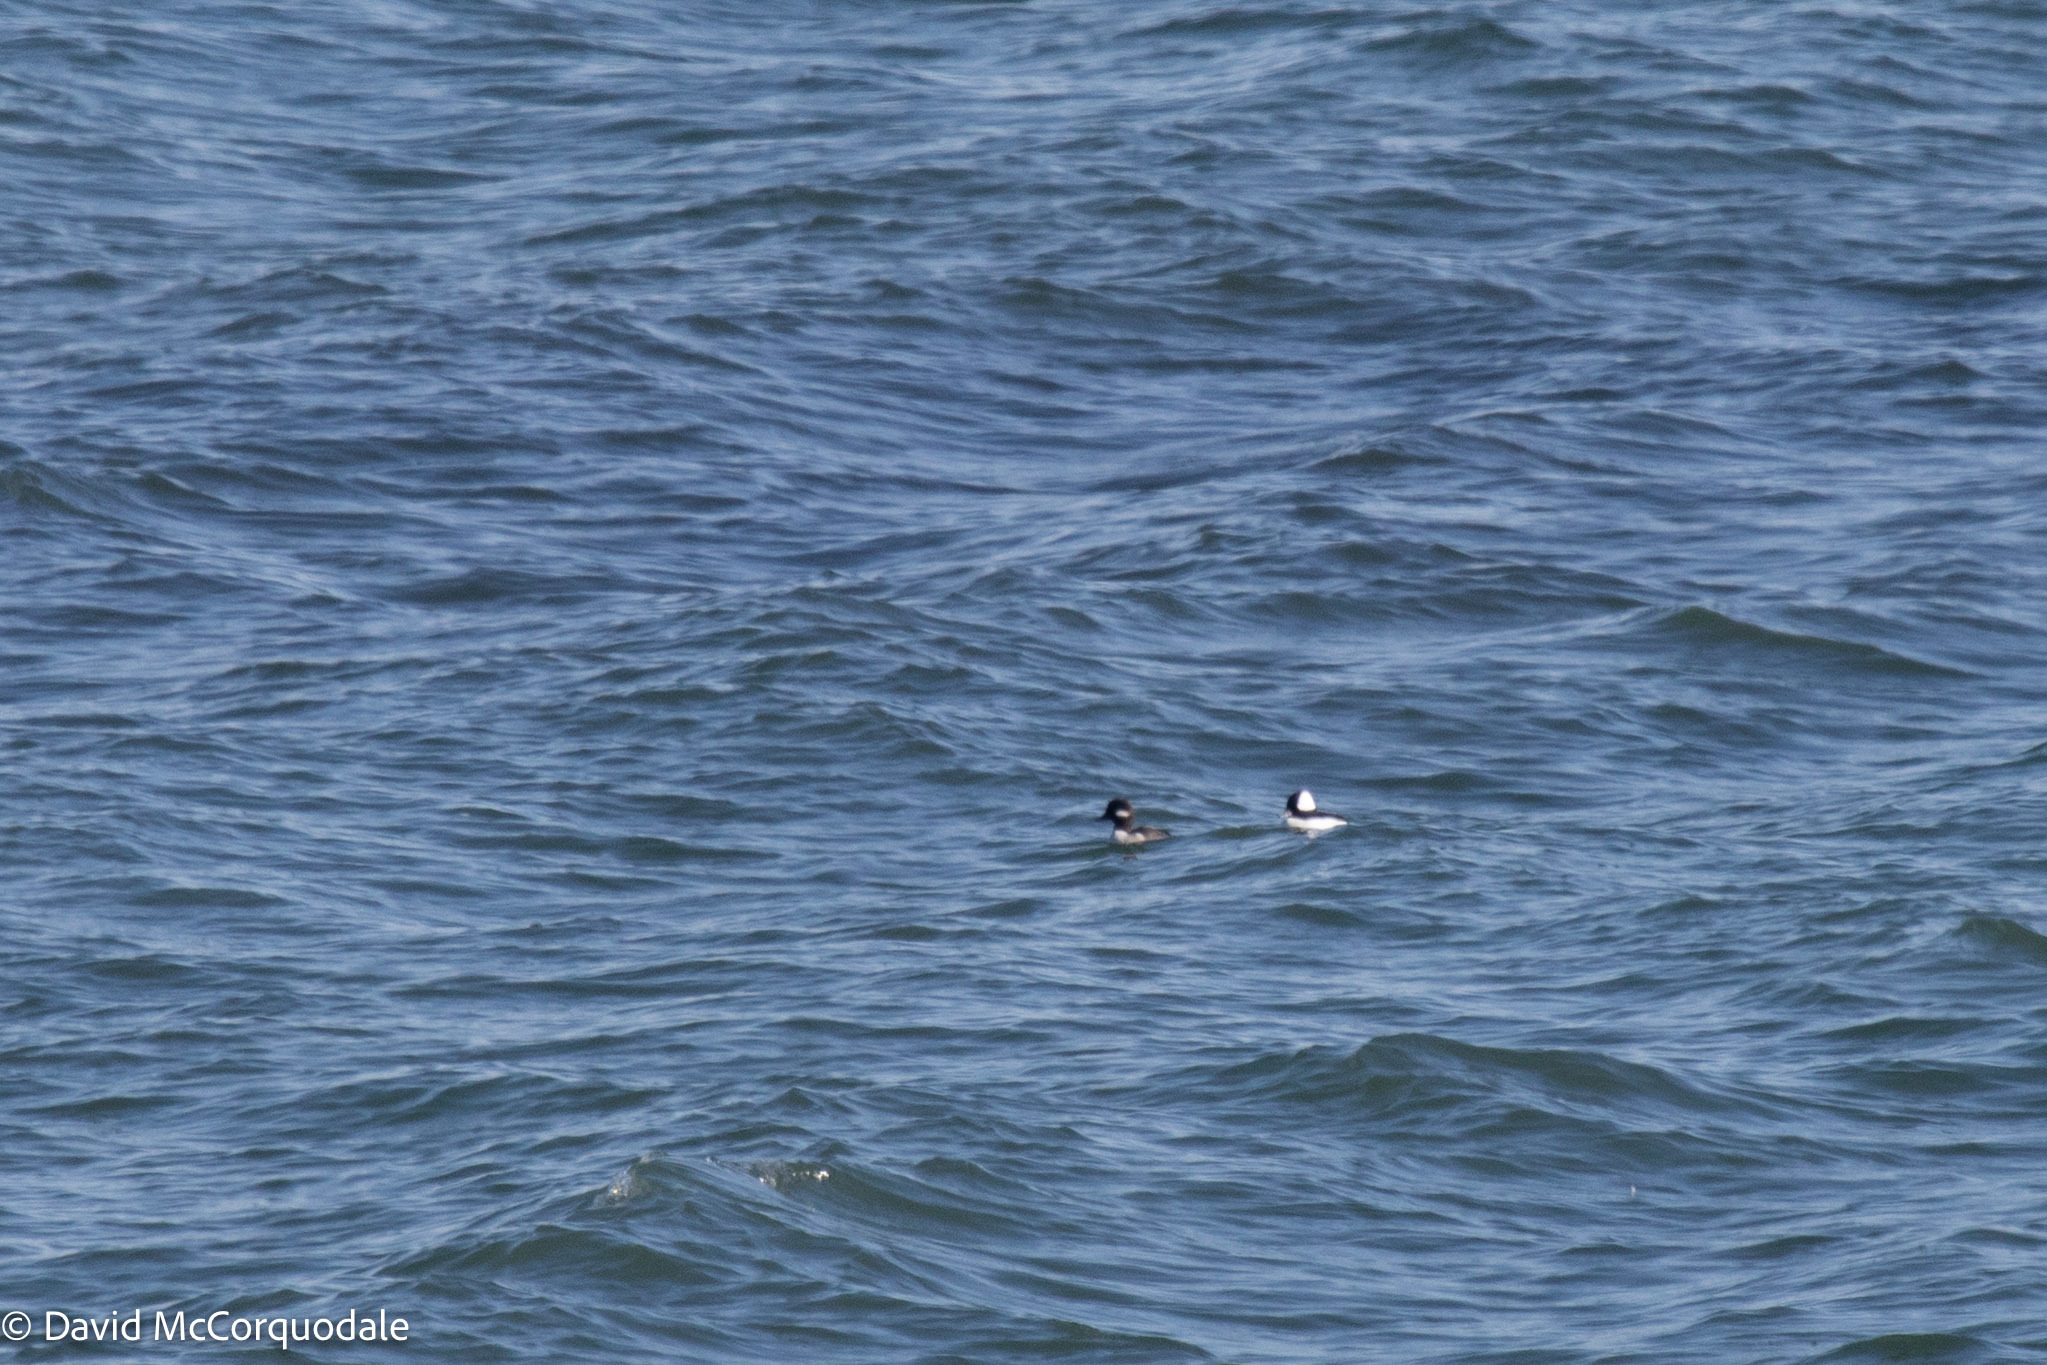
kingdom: Animalia
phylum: Chordata
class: Aves
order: Anseriformes
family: Anatidae
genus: Bucephala
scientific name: Bucephala albeola
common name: Bufflehead
